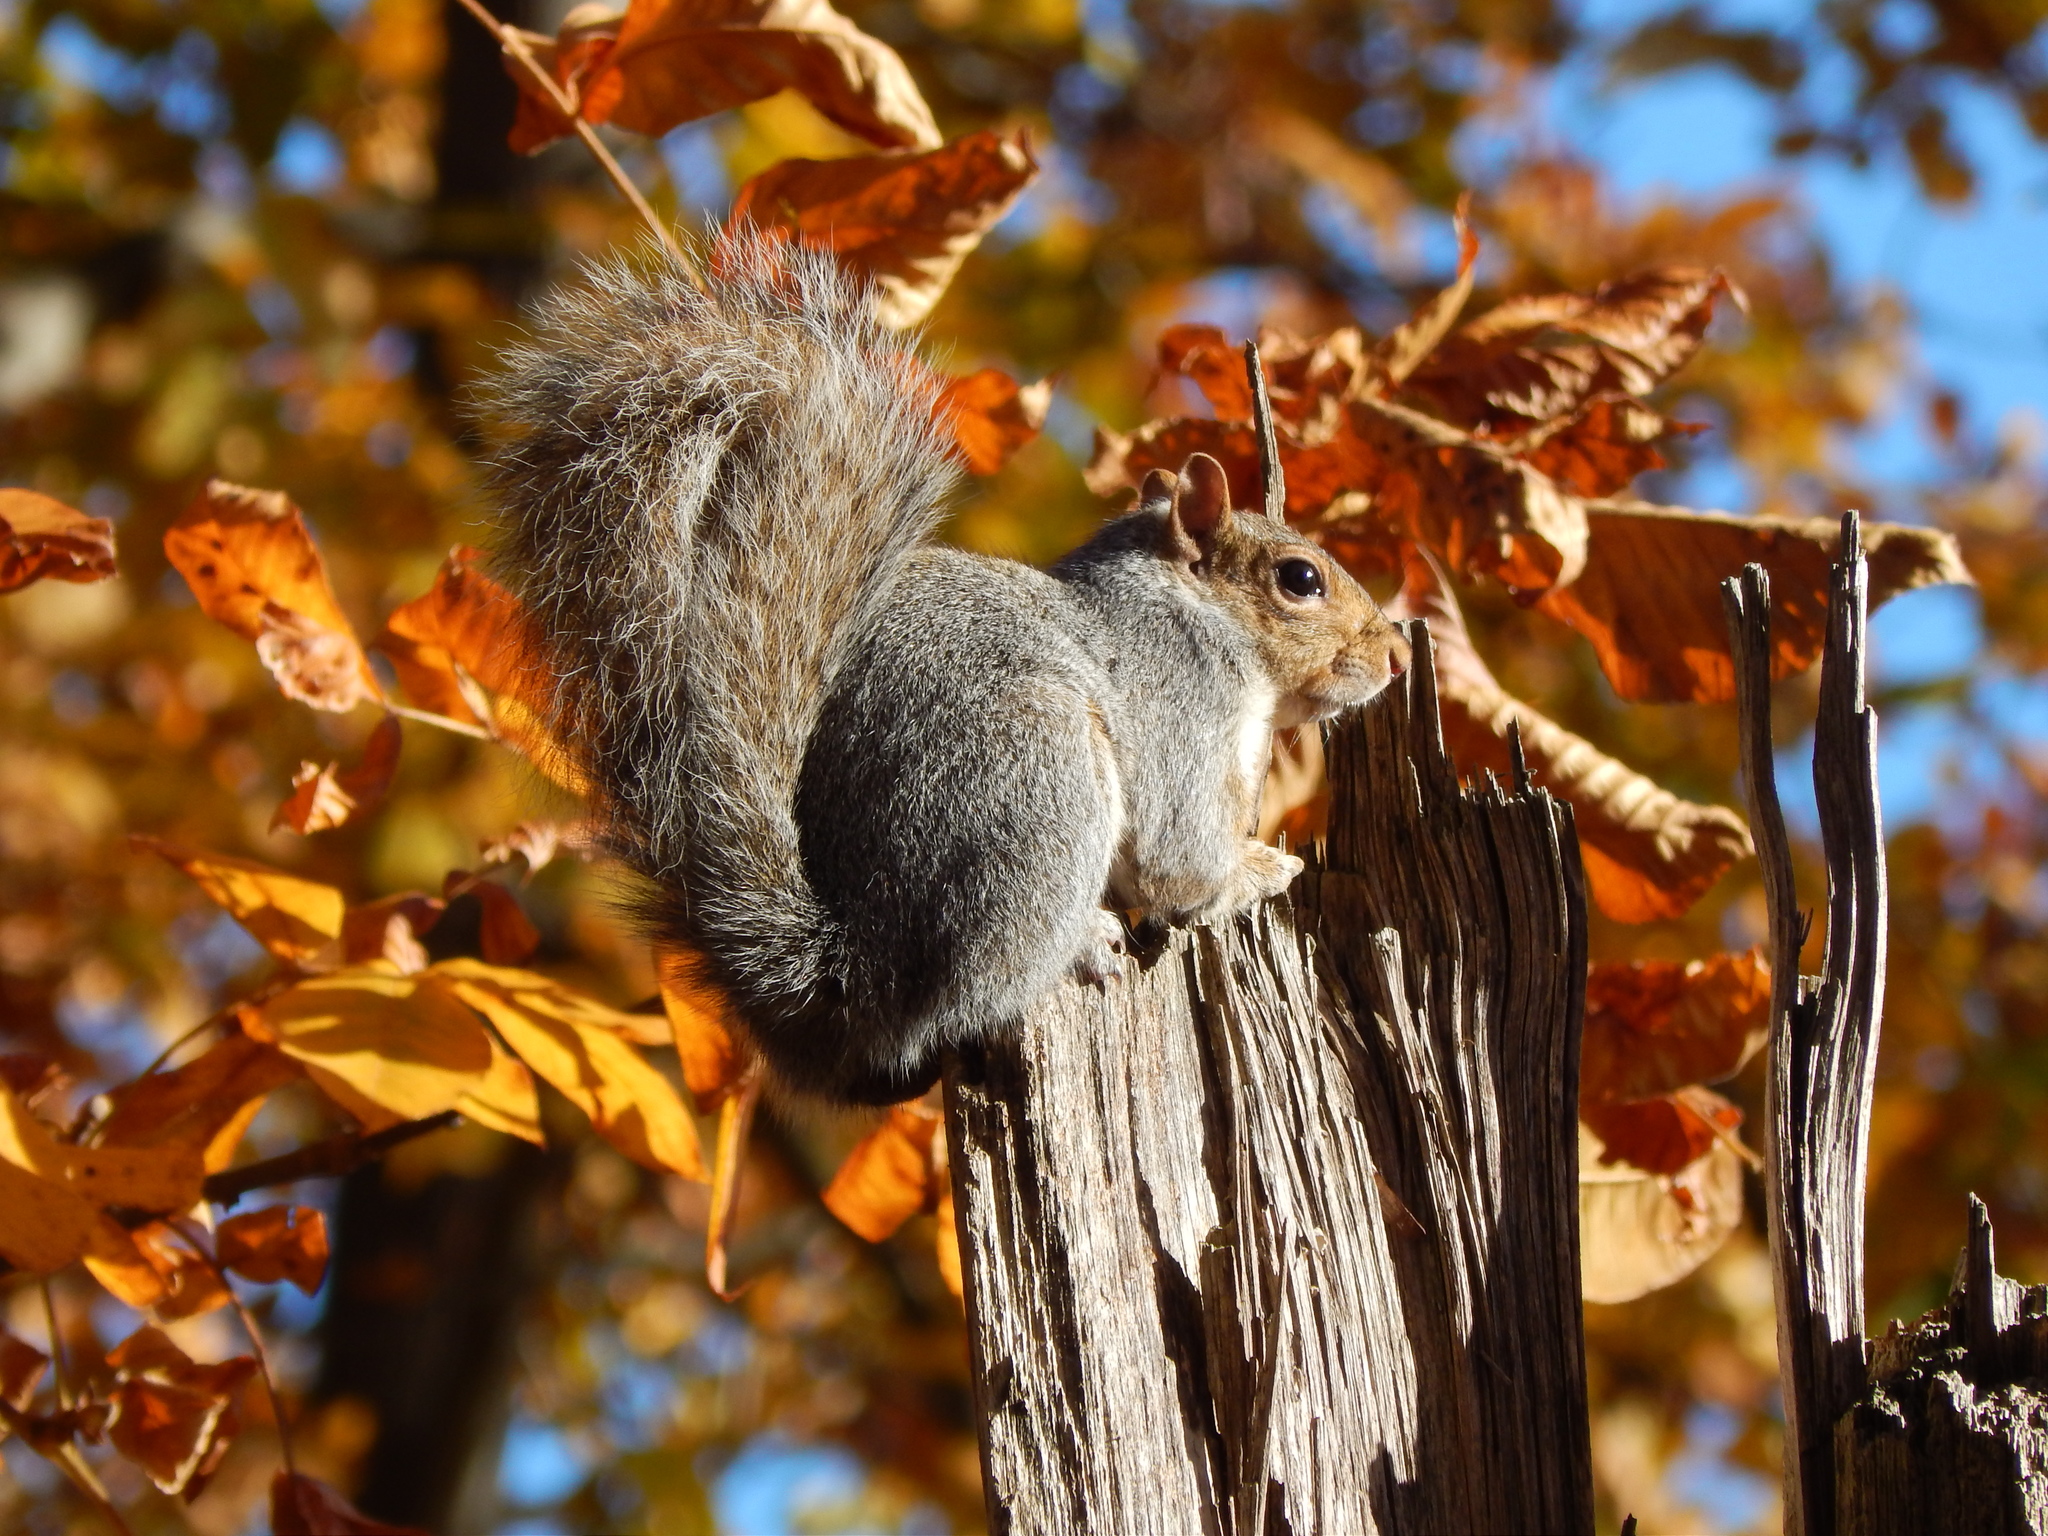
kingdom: Animalia
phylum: Chordata
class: Mammalia
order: Rodentia
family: Sciuridae
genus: Sciurus
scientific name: Sciurus carolinensis
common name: Eastern gray squirrel
